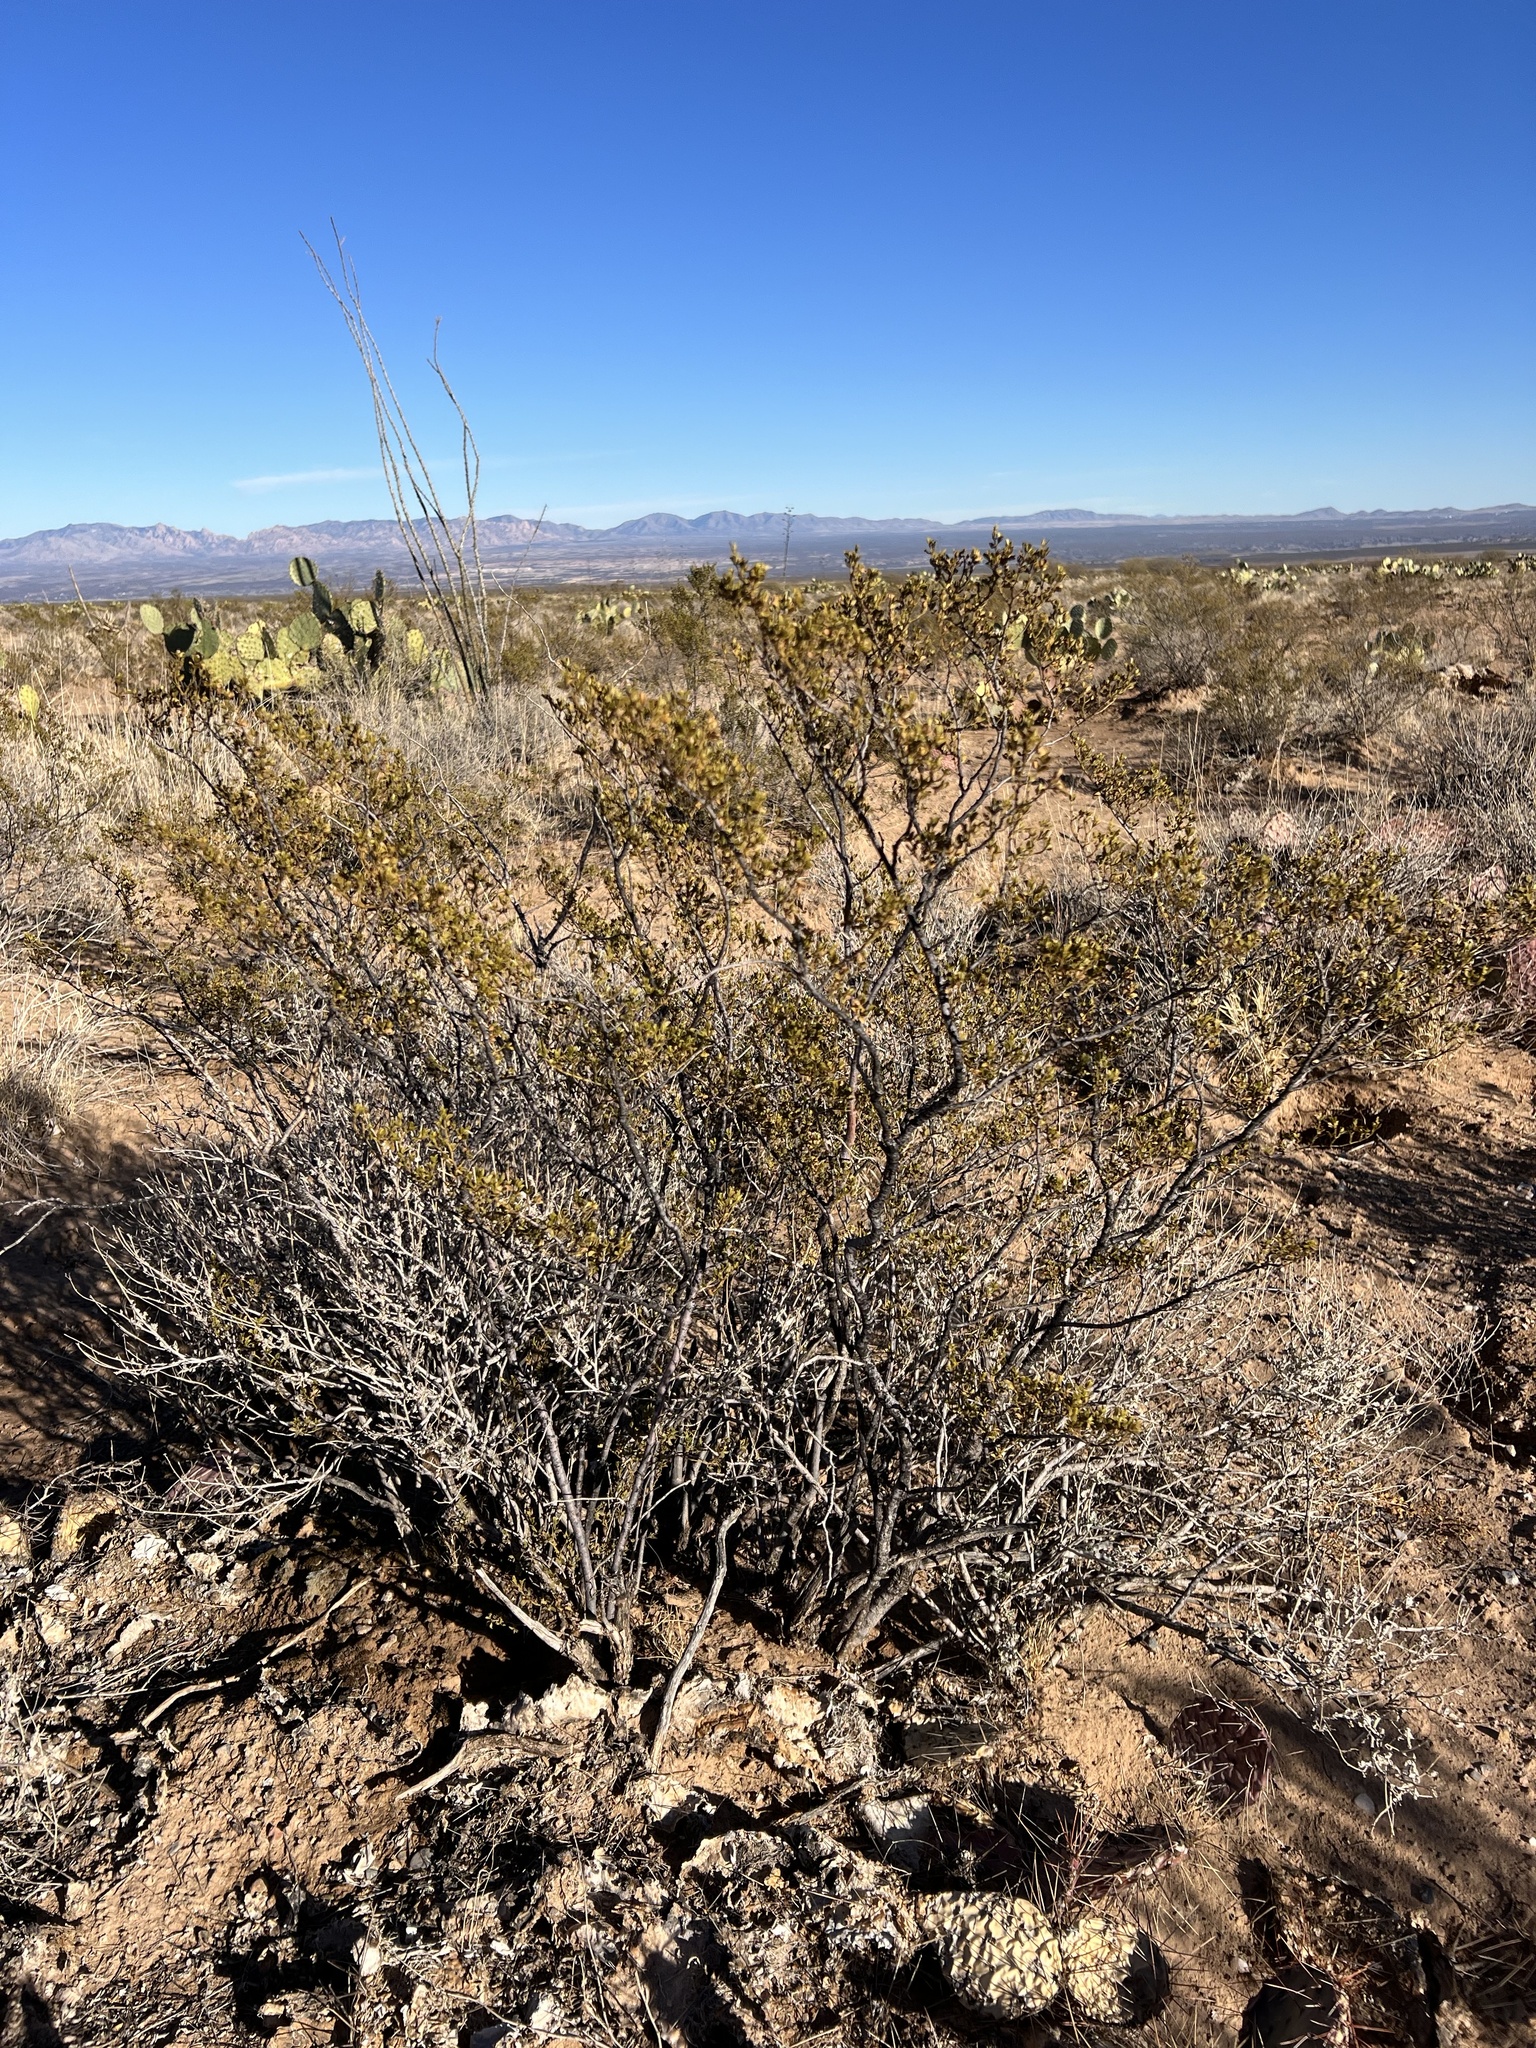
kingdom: Plantae
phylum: Tracheophyta
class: Magnoliopsida
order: Zygophyllales
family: Zygophyllaceae
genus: Larrea
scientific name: Larrea tridentata
